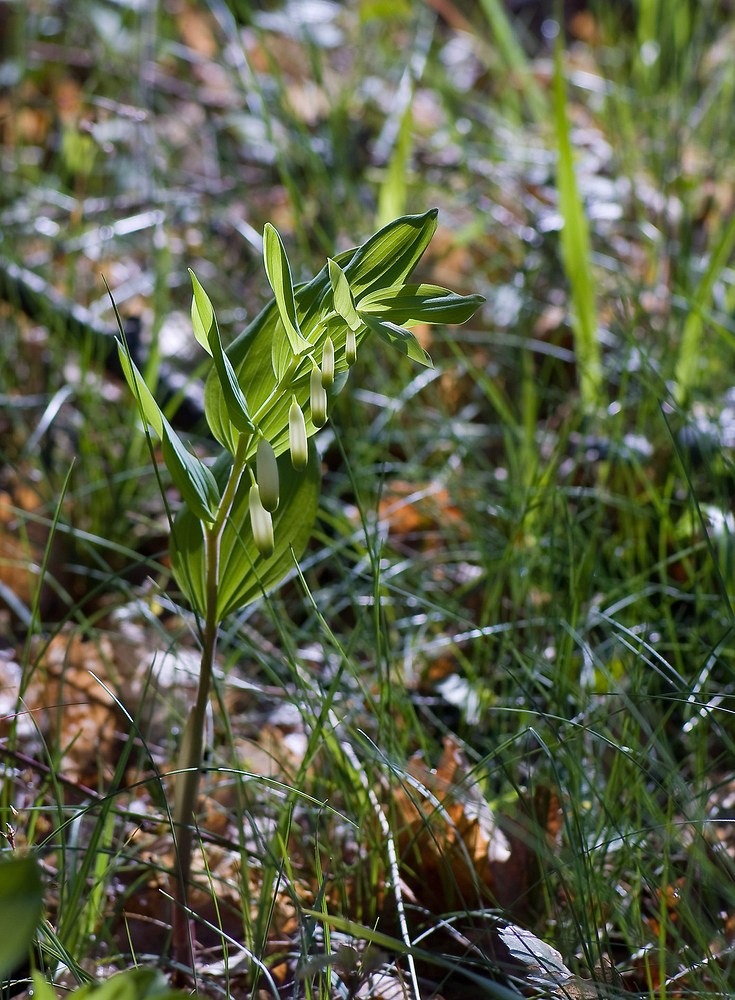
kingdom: Plantae
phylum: Tracheophyta
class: Liliopsida
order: Asparagales
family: Asparagaceae
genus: Polygonatum
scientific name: Polygonatum odoratum
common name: Angular solomon's-seal
